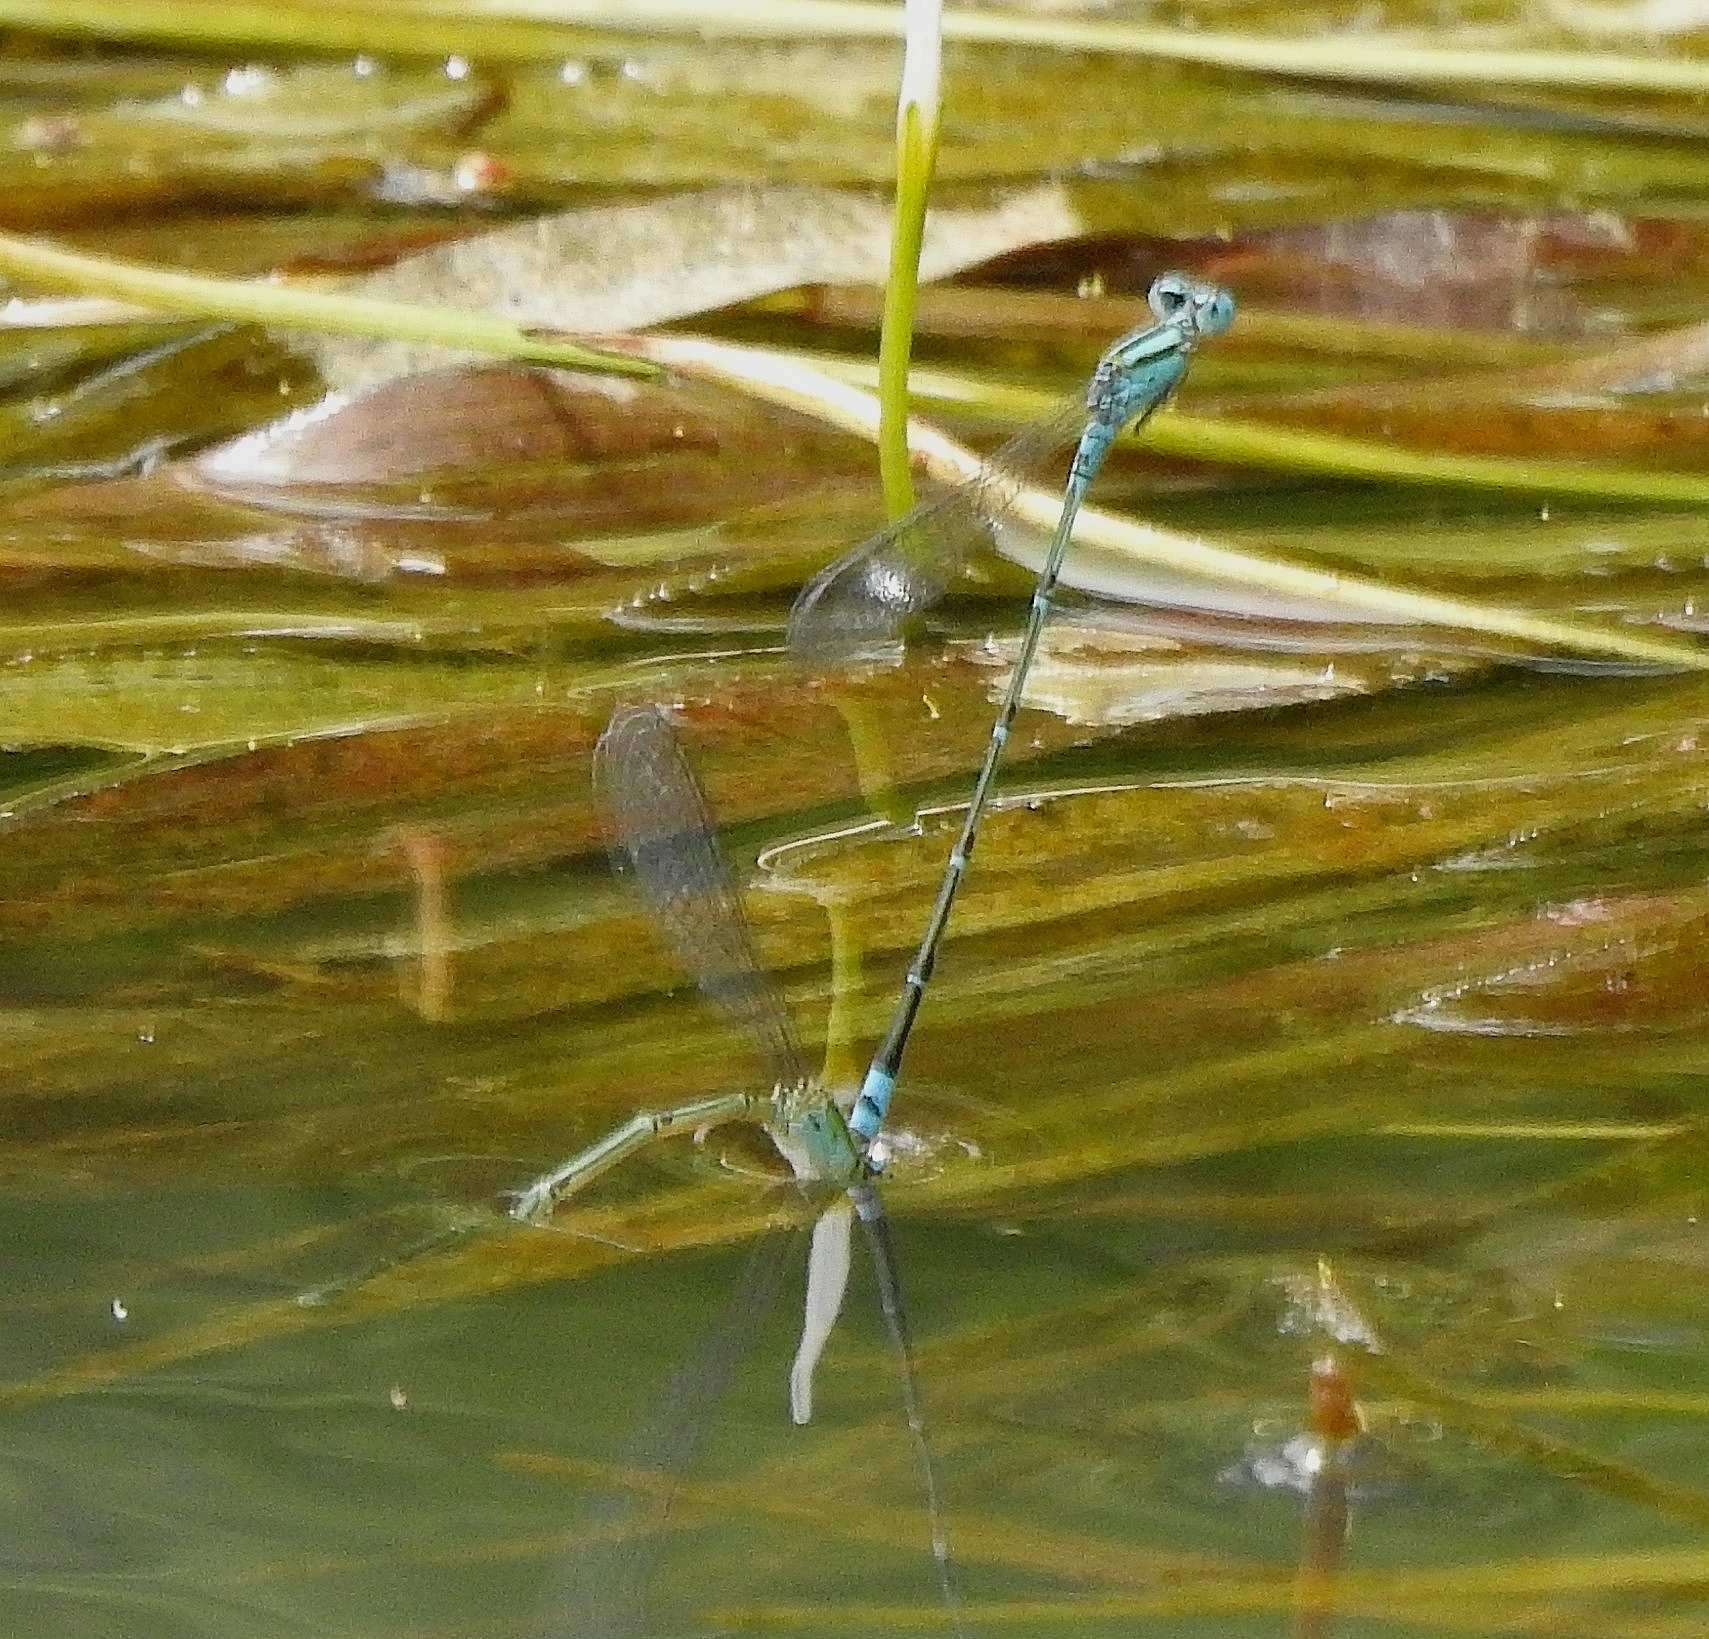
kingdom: Animalia
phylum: Arthropoda
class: Insecta
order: Odonata
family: Coenagrionidae
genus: Pseudagrion
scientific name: Pseudagrion microcephalum
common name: Blue riverdamsel
